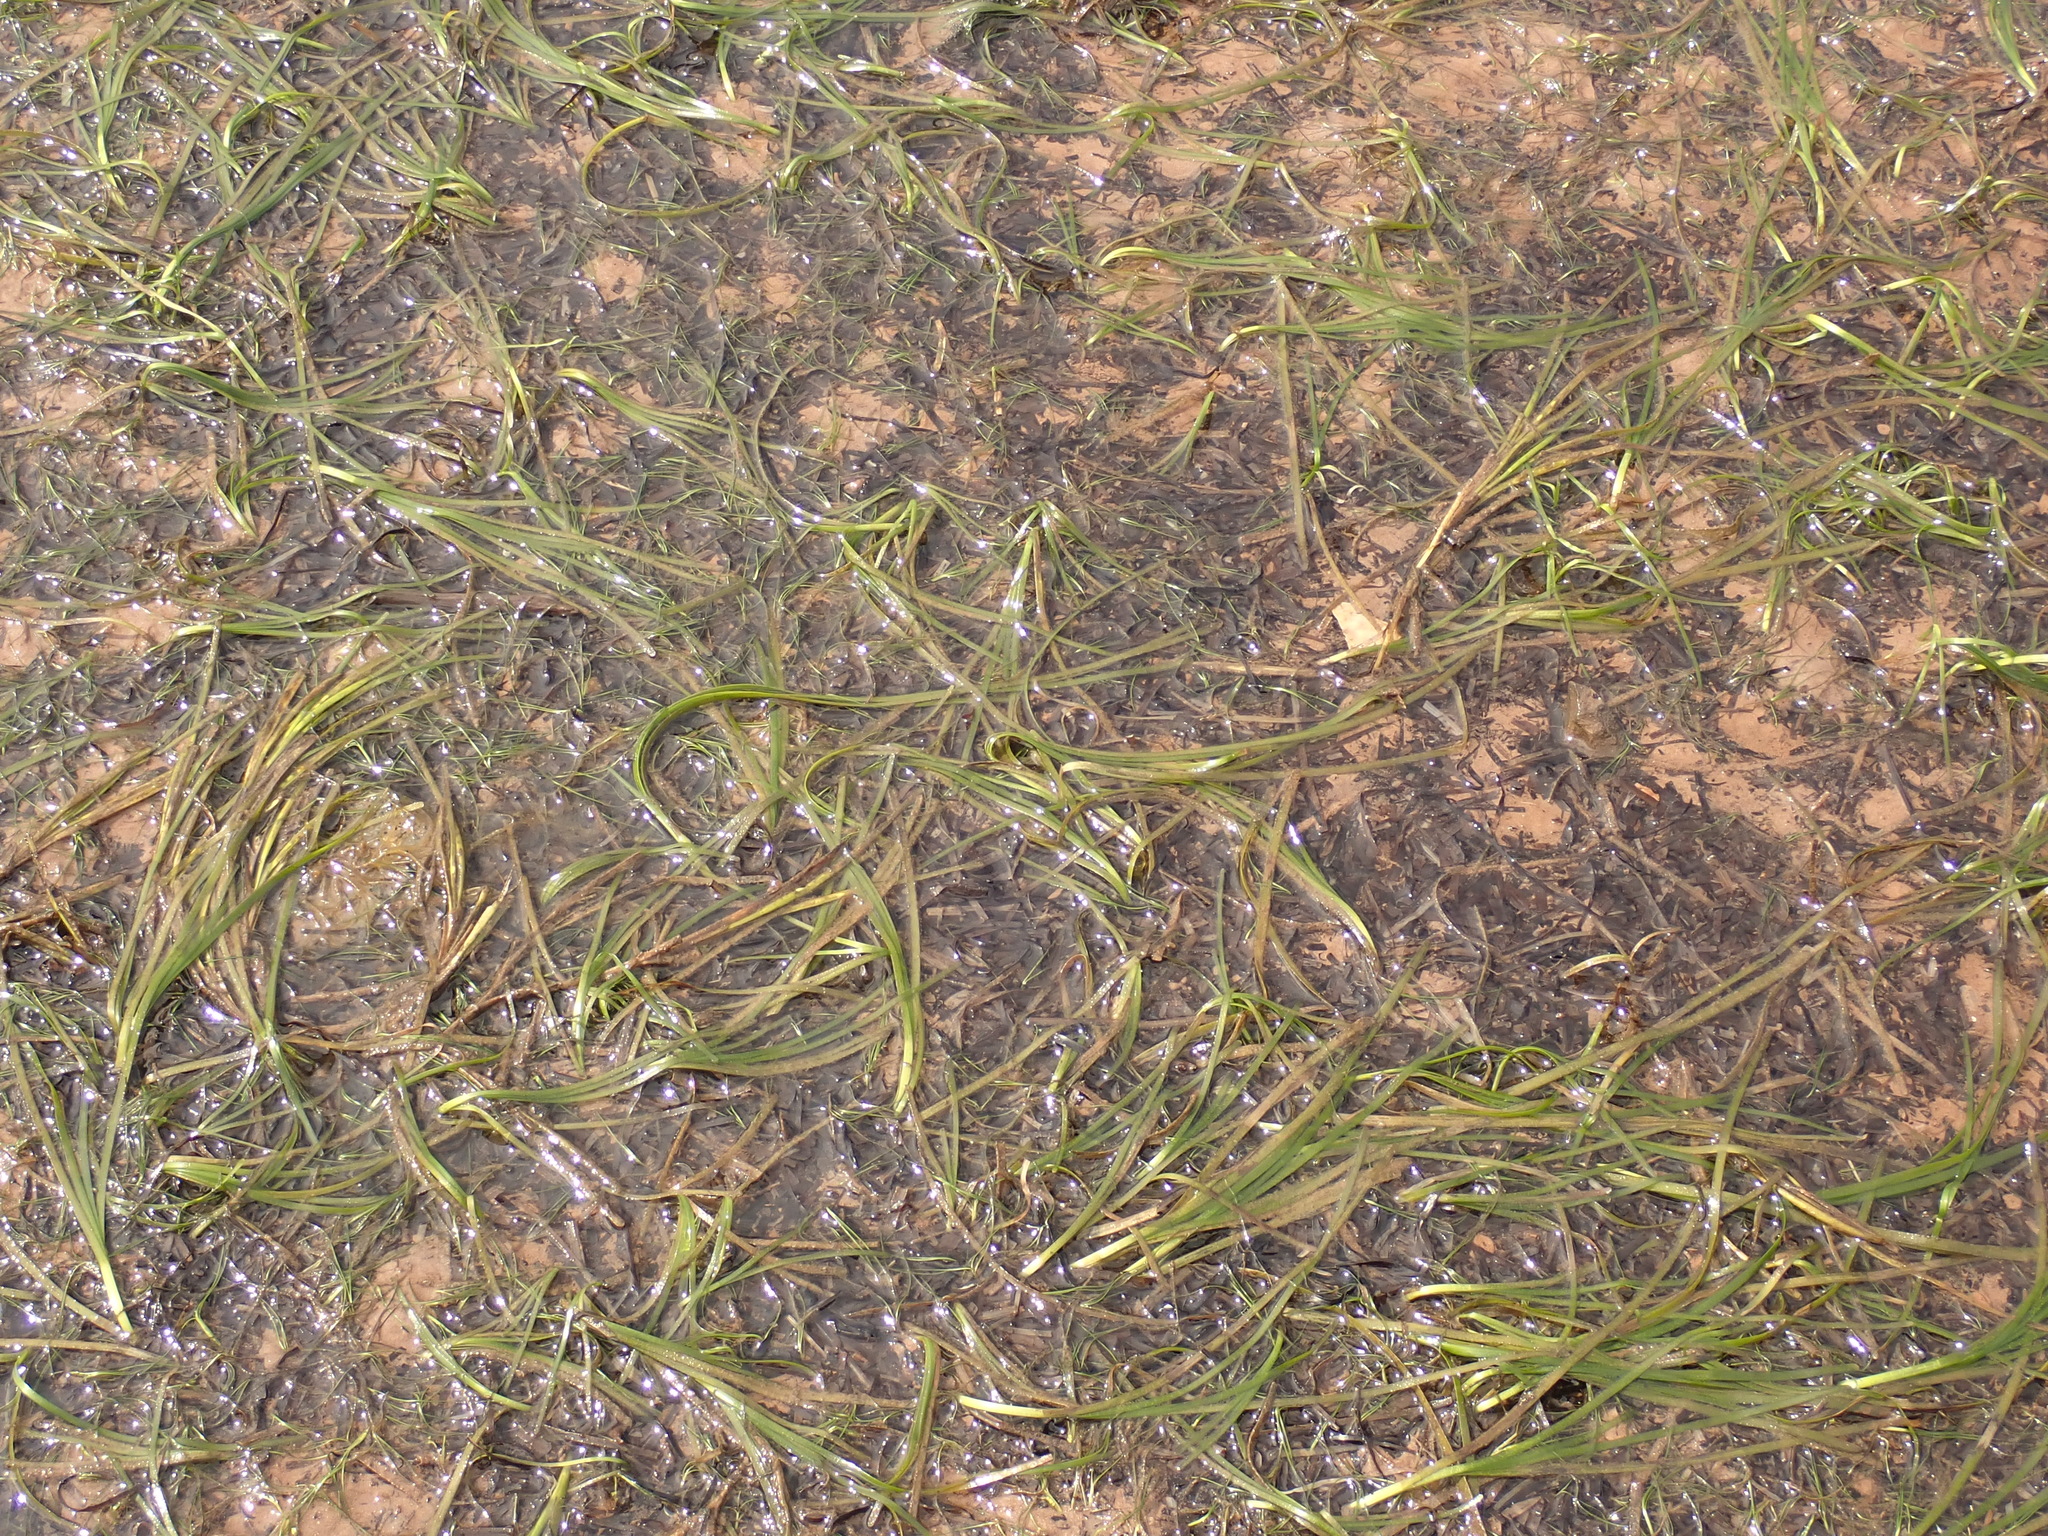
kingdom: Plantae
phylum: Tracheophyta
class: Liliopsida
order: Alismatales
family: Zosteraceae
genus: Zostera
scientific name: Zostera marina
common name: Eelgrass
